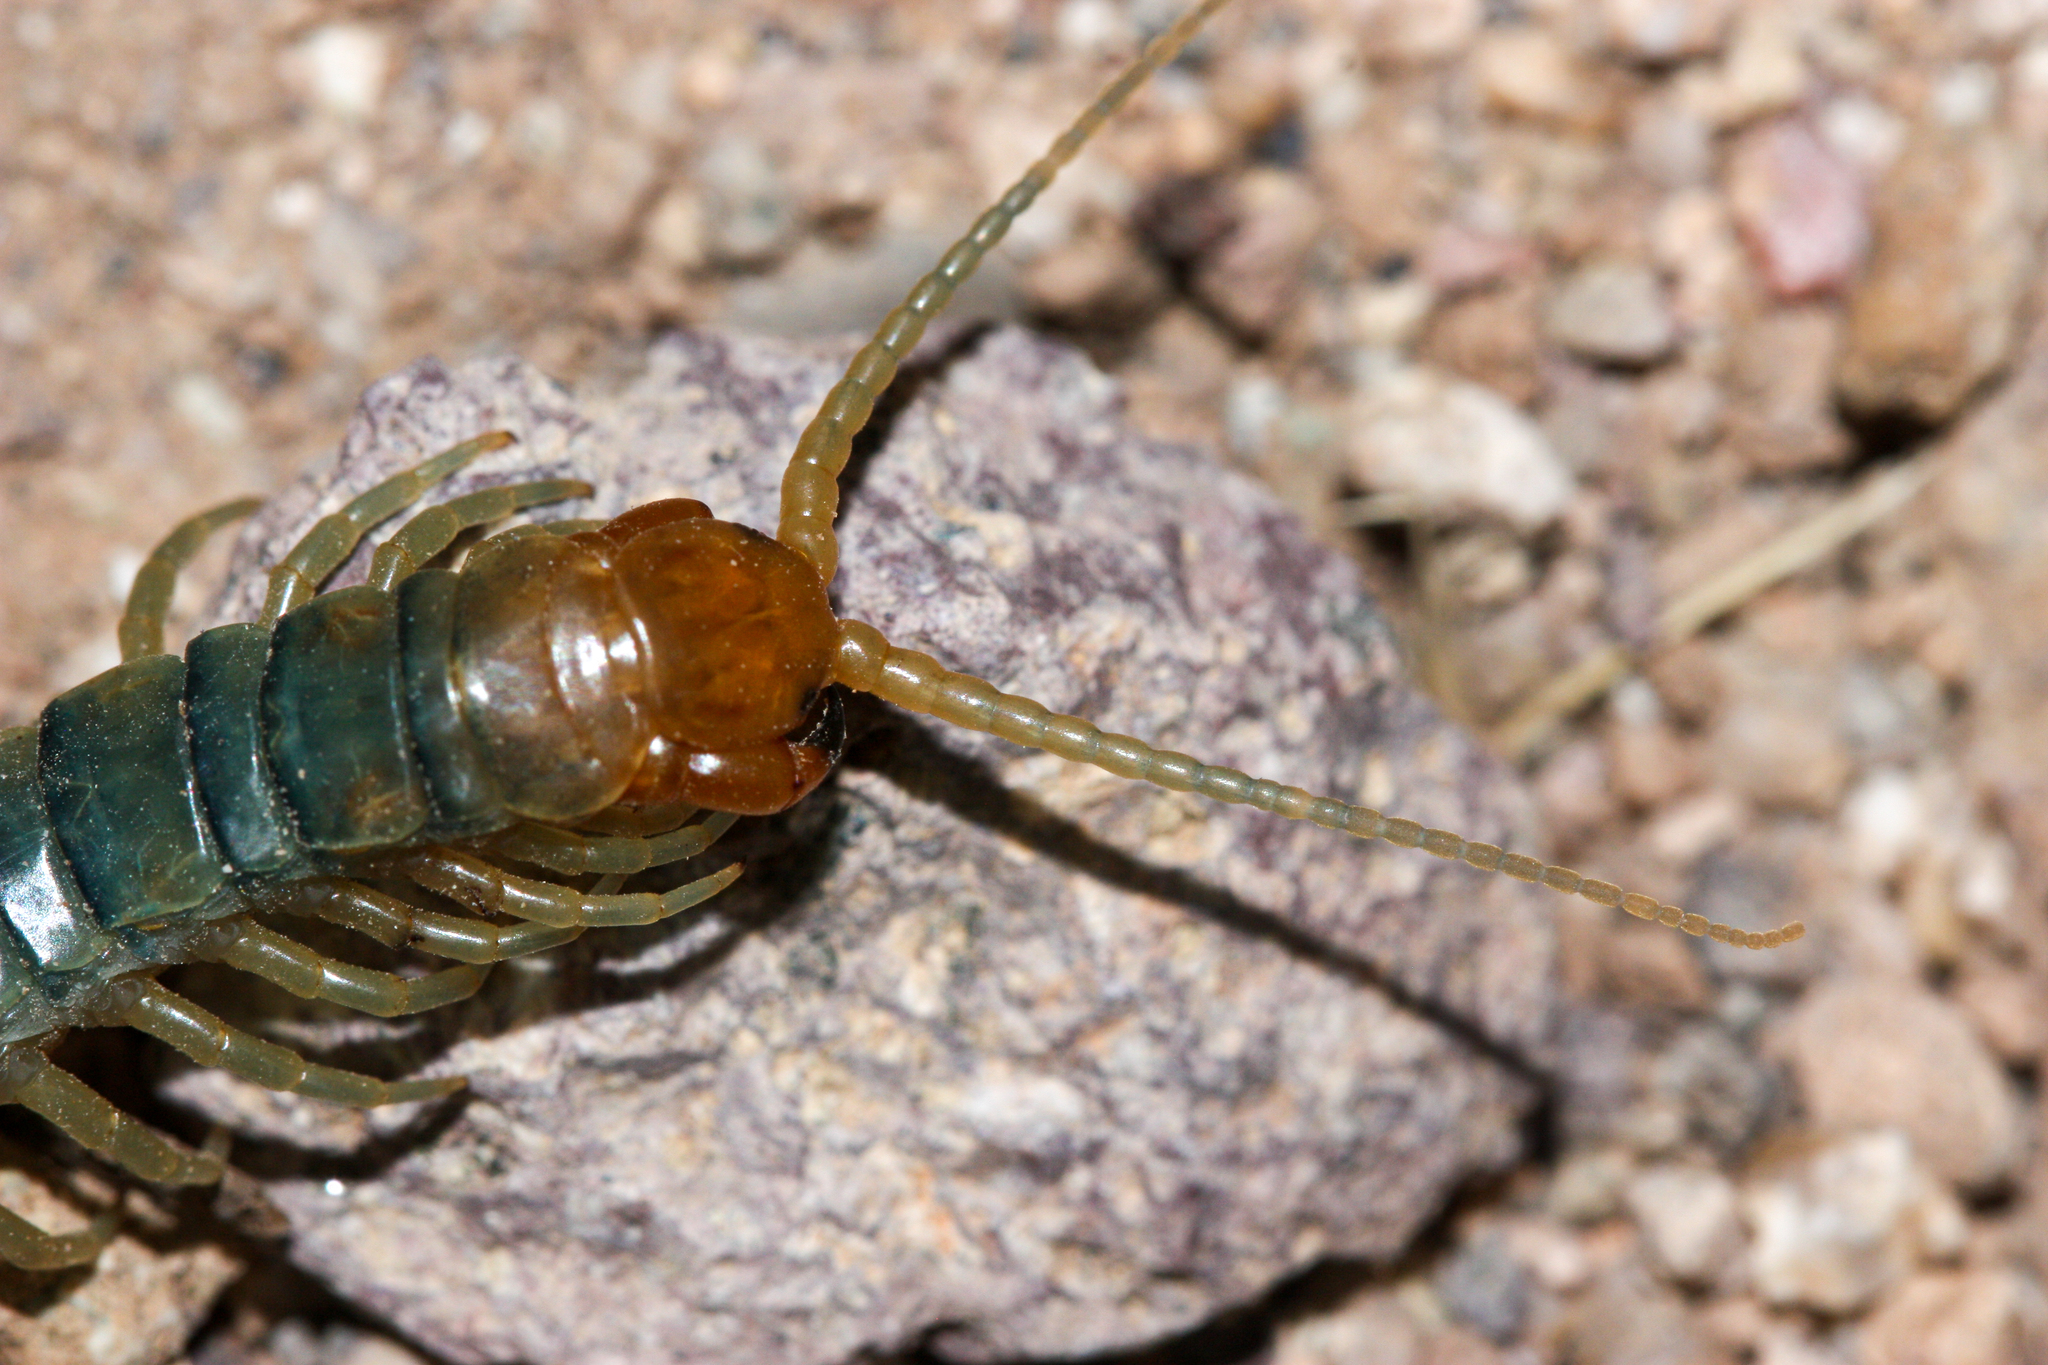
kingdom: Animalia
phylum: Arthropoda
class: Chilopoda
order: Scolopendromorpha
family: Scolopendridae
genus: Scolopendra
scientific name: Scolopendra polymorpha
